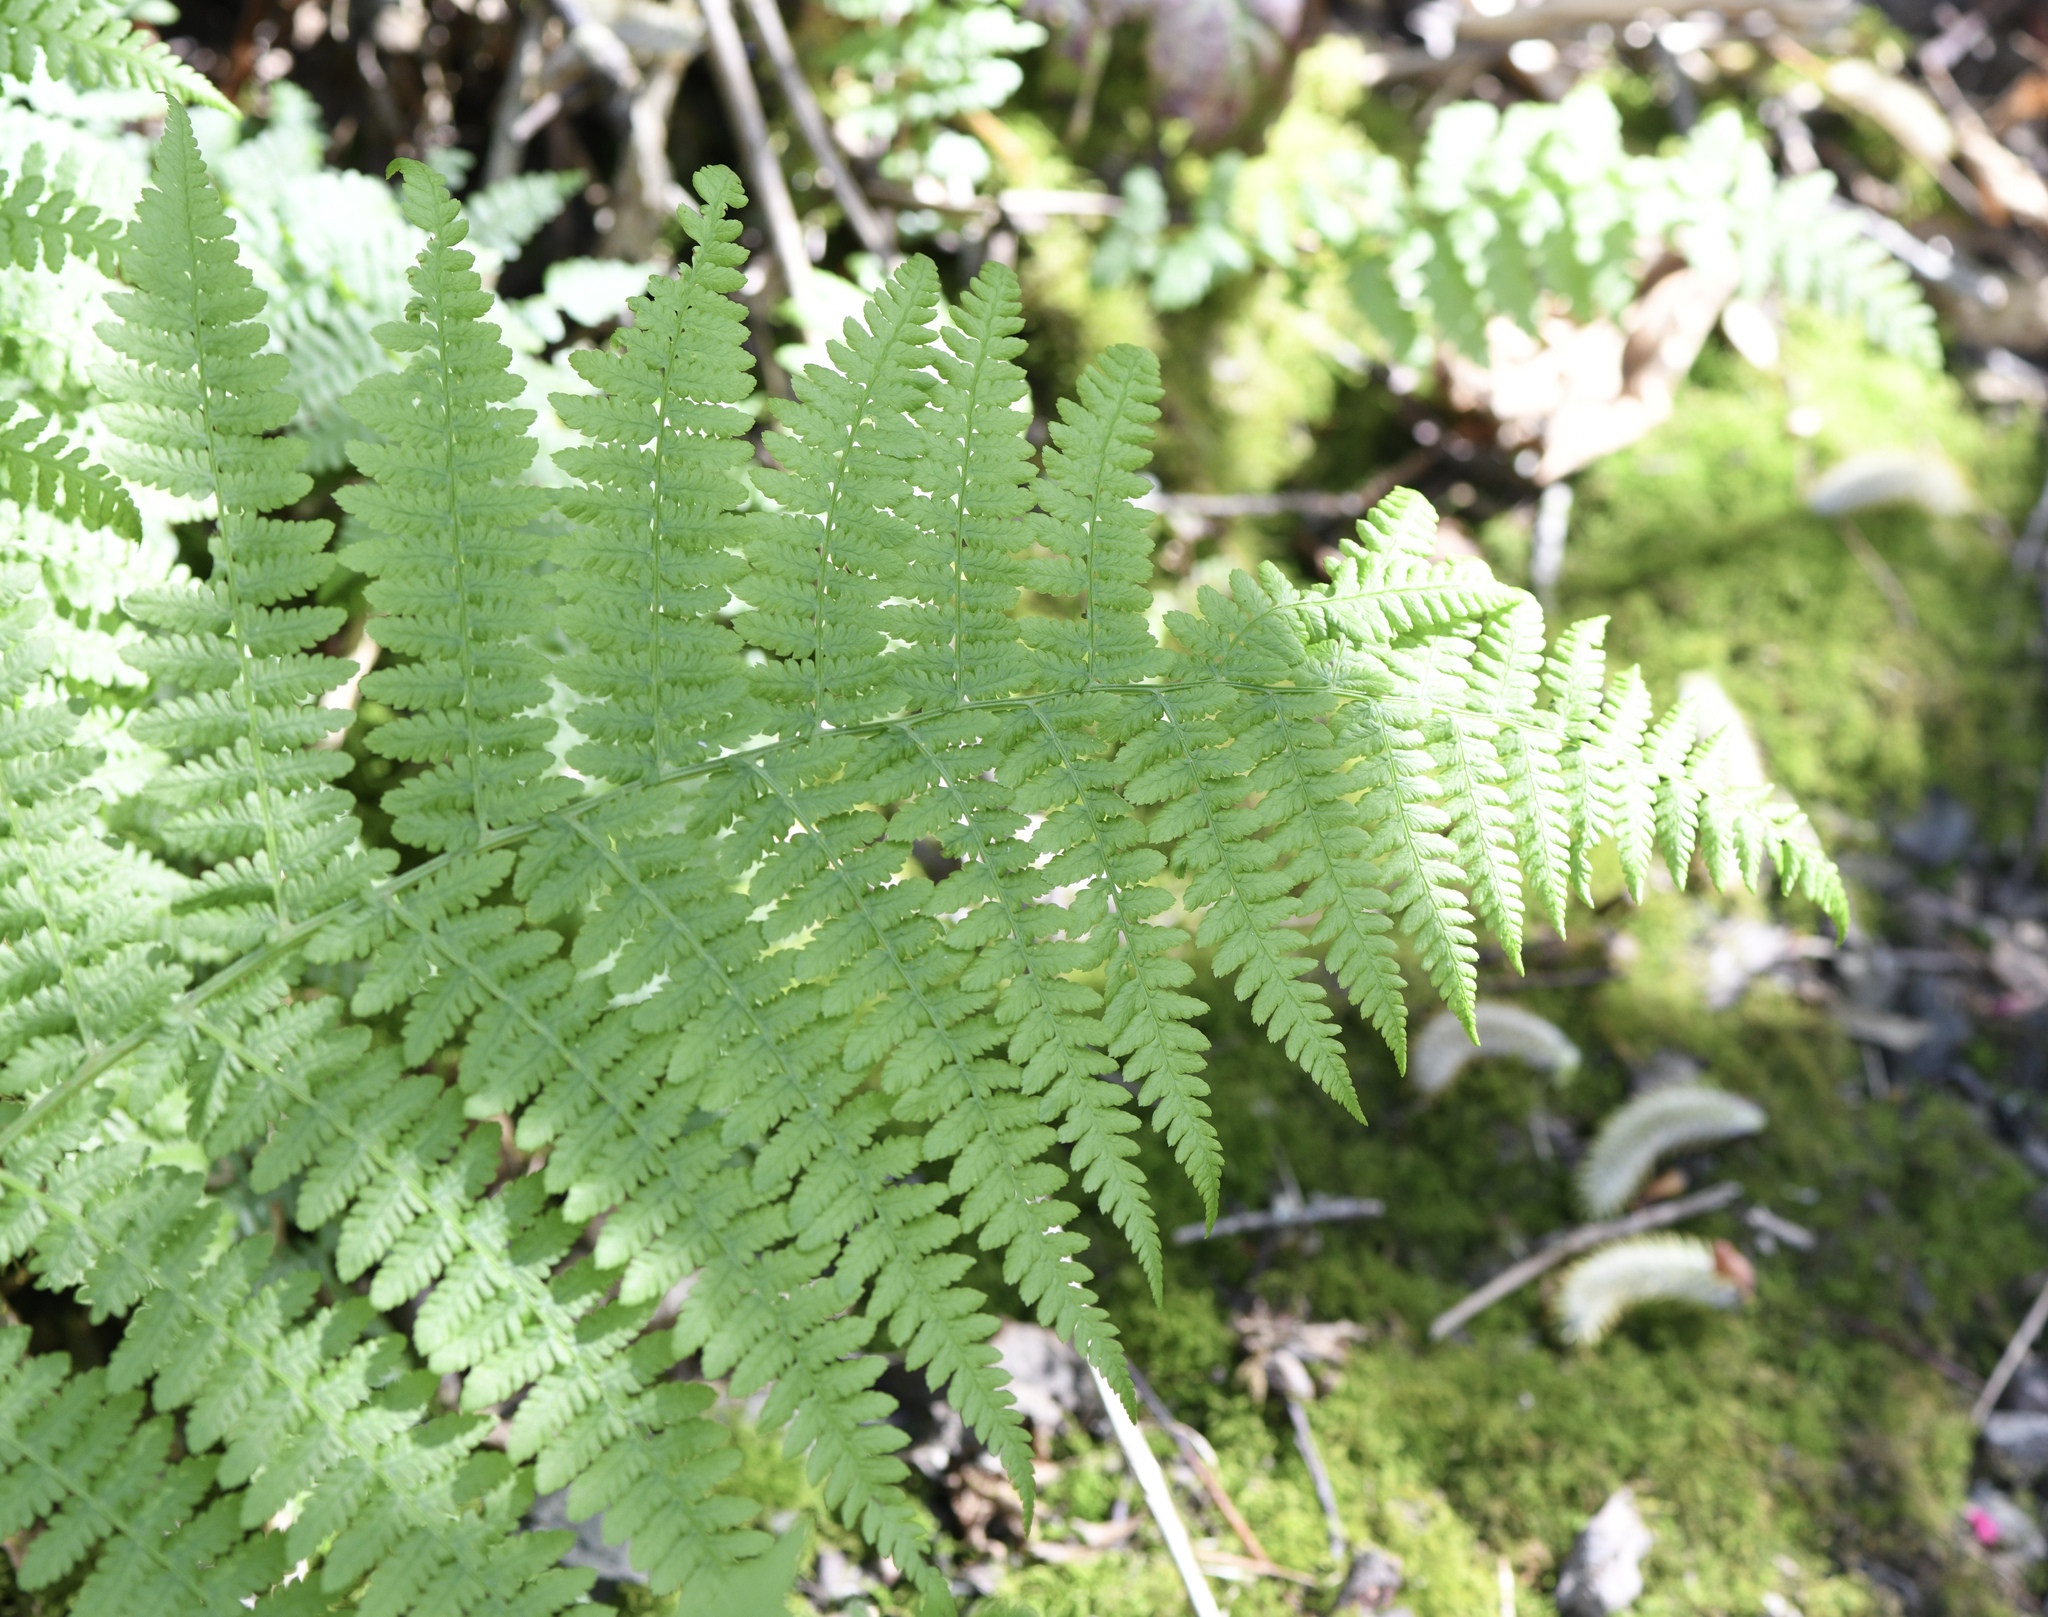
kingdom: Plantae
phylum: Tracheophyta
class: Polypodiopsida
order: Polypodiales
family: Athyriaceae
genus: Athyrium
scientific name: Athyrium filix-femina
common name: Lady fern
